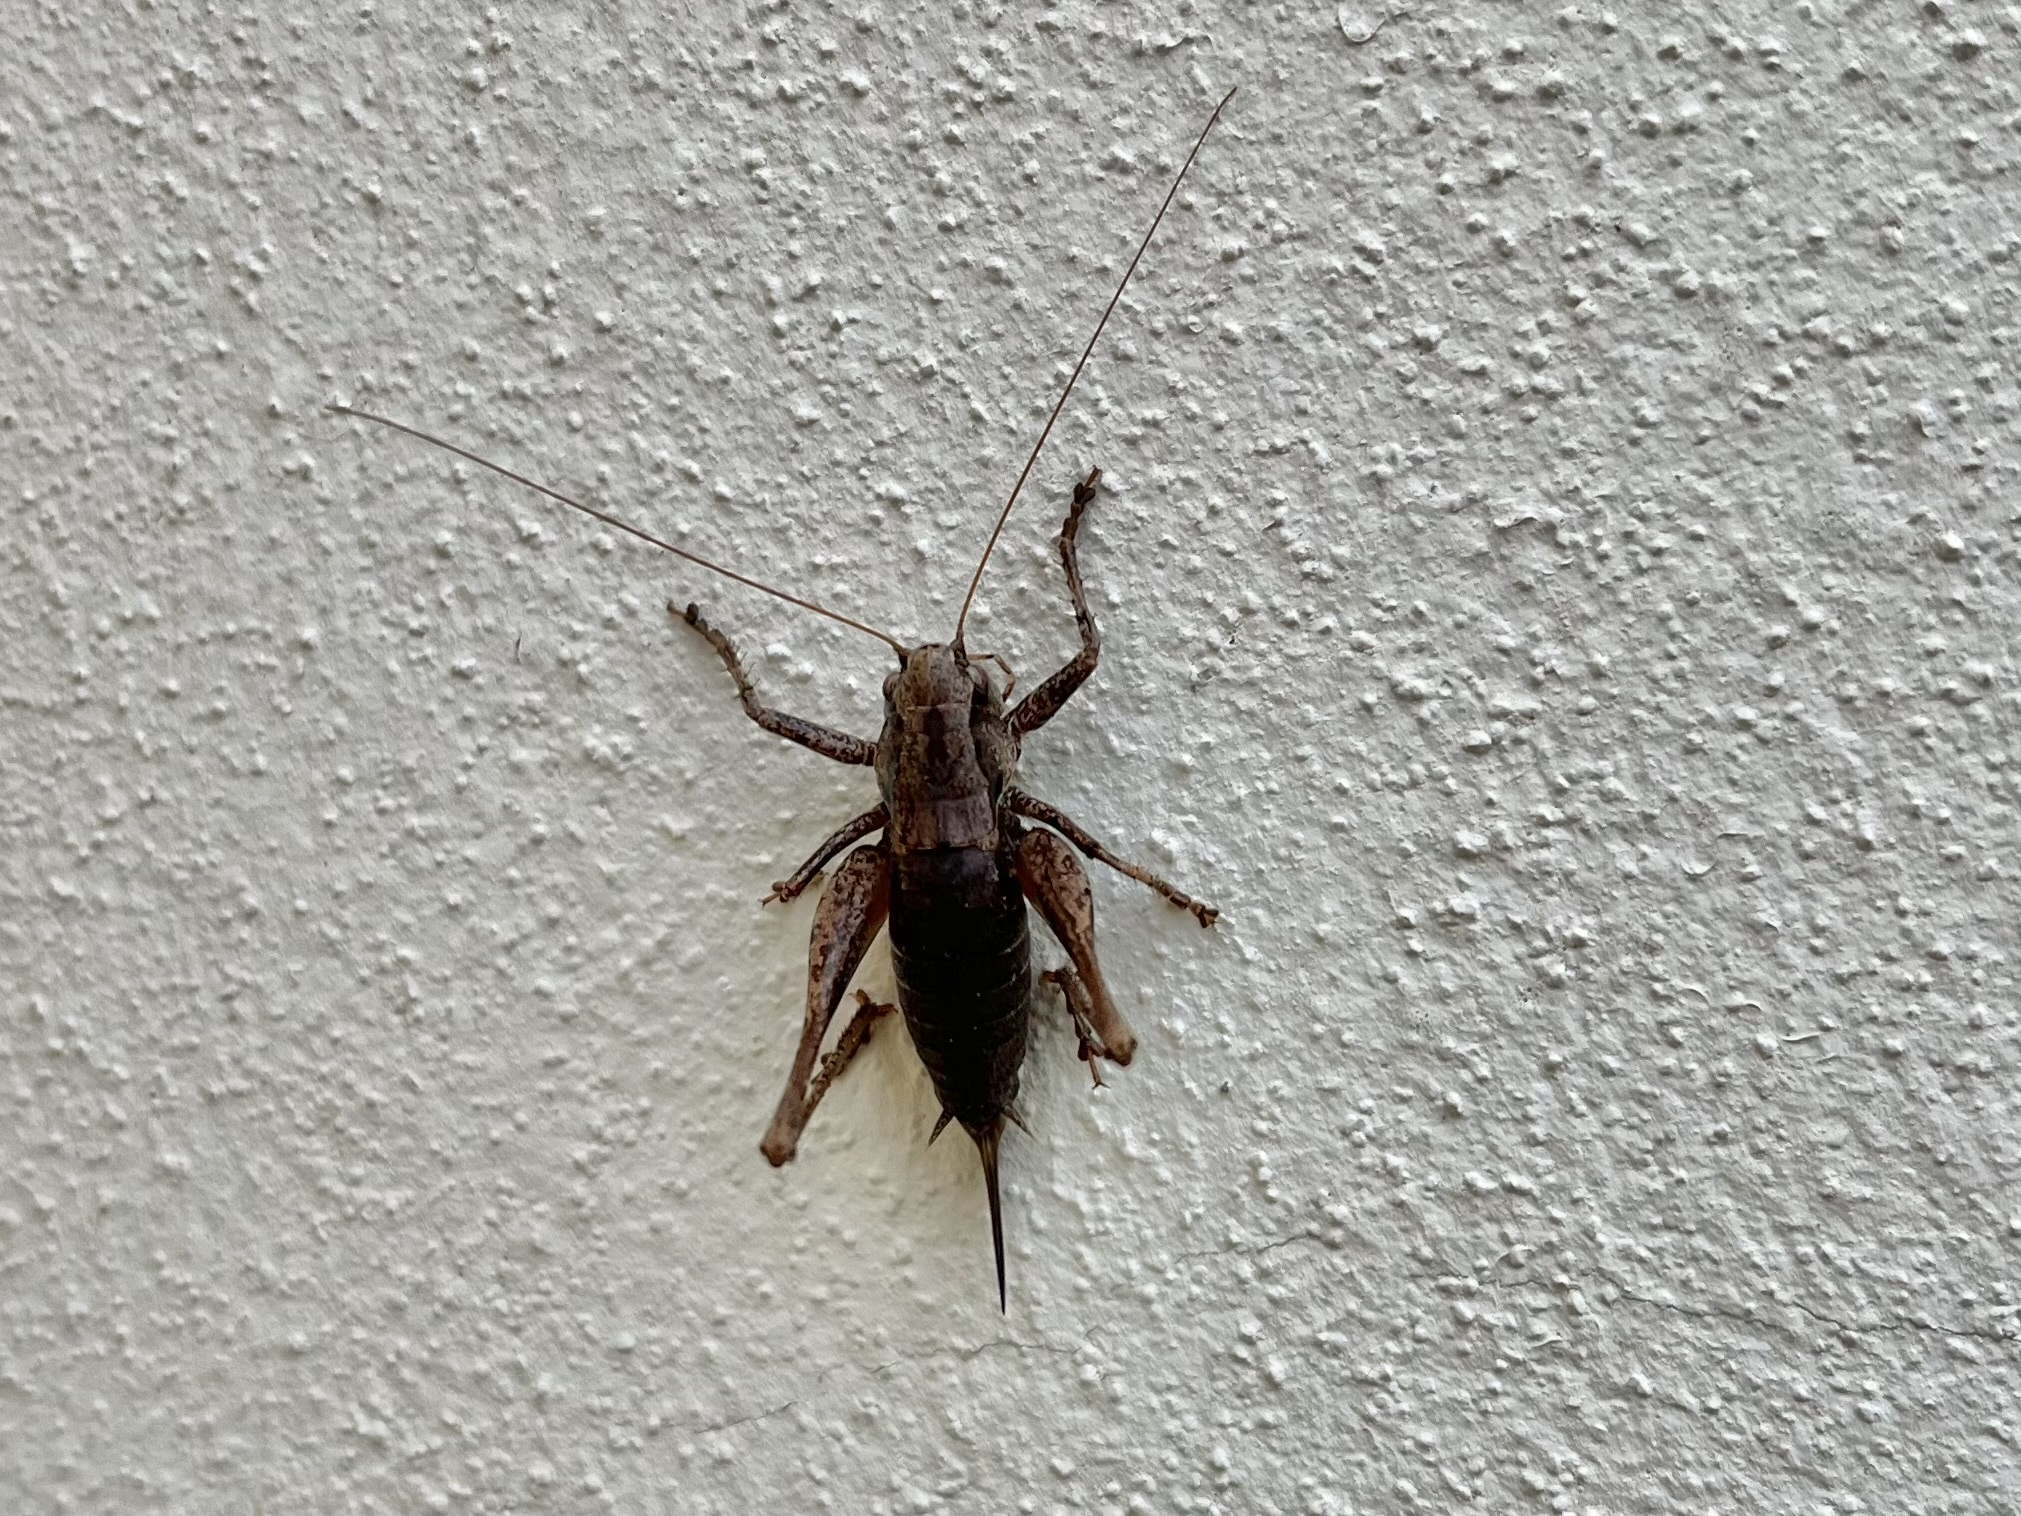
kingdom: Animalia
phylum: Arthropoda
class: Insecta
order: Orthoptera
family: Tettigoniidae
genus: Pholidoptera
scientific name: Pholidoptera griseoaptera
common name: Dark bush-cricket
